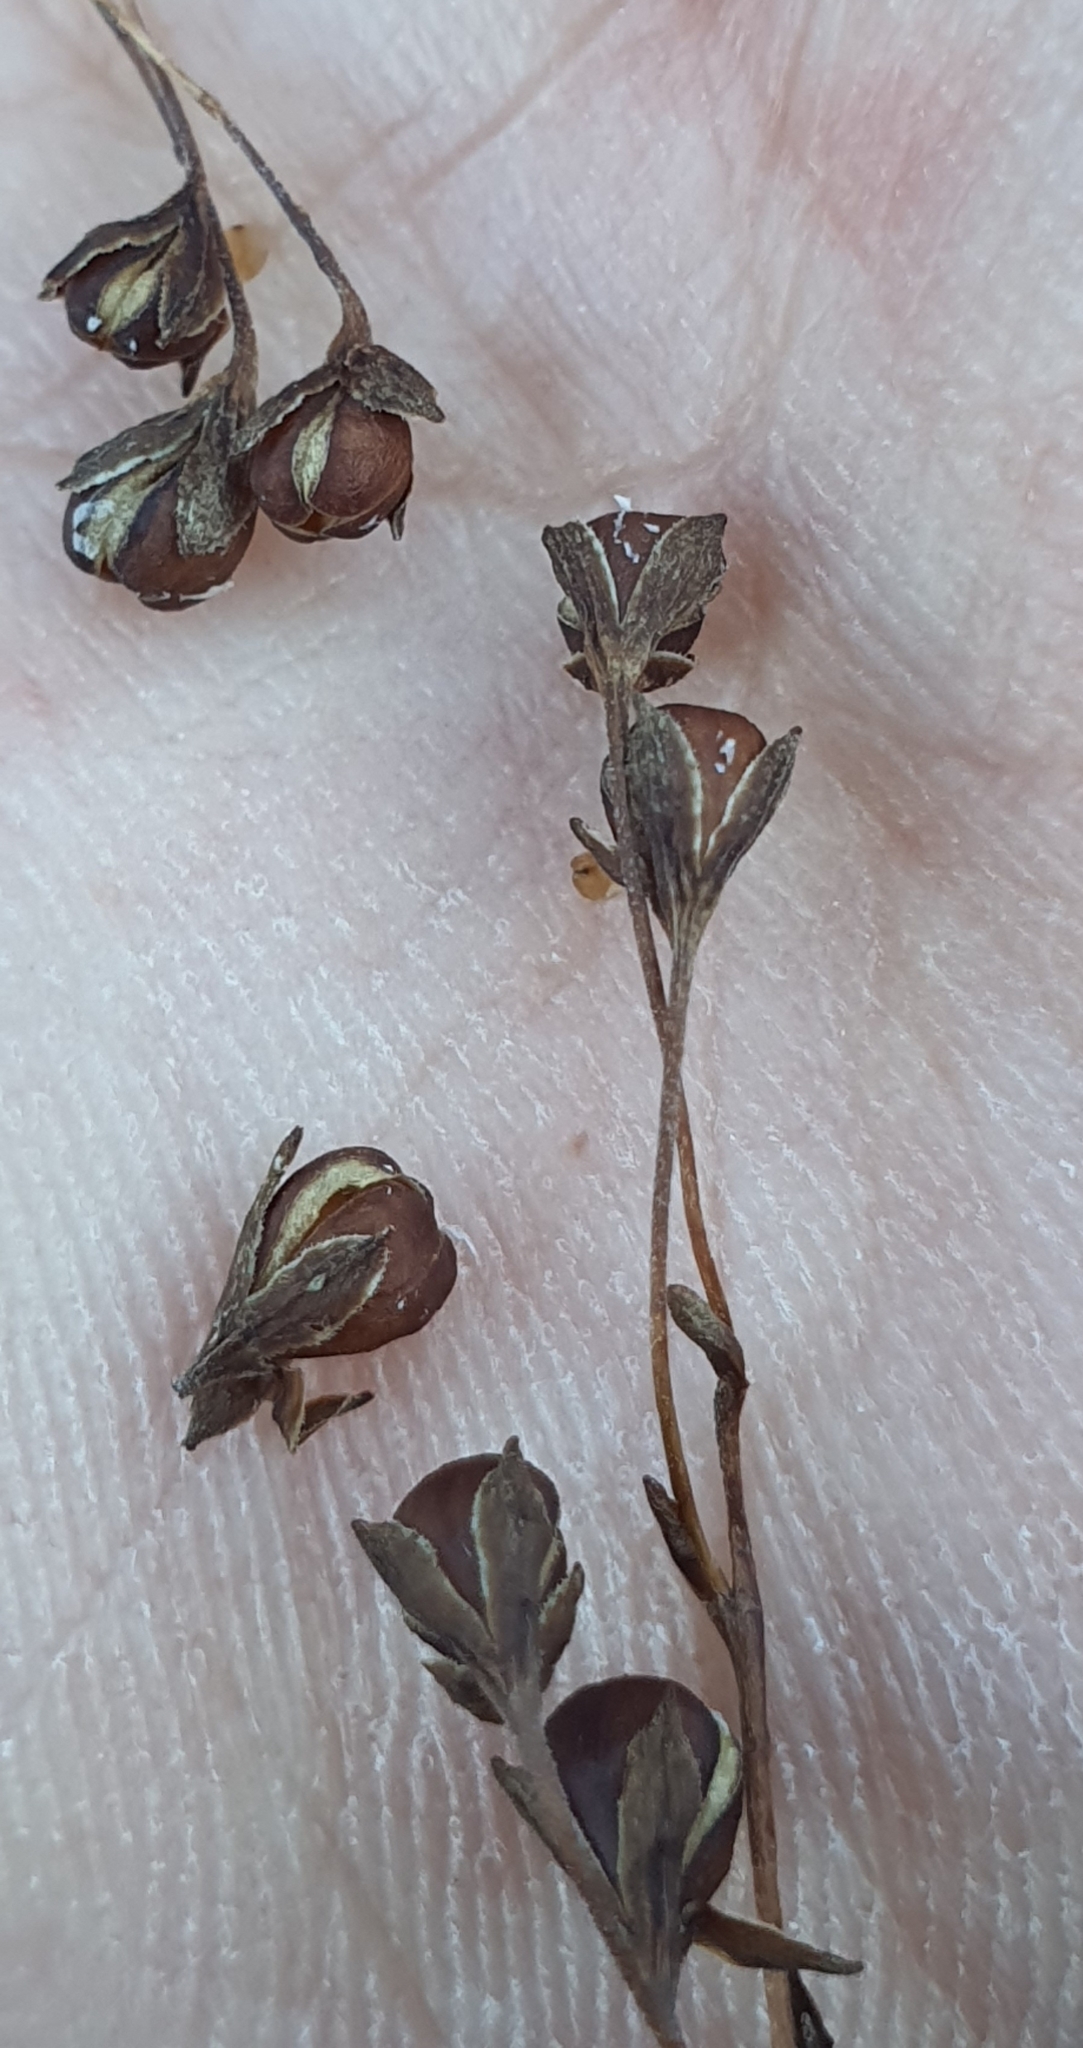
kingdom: Plantae
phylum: Tracheophyta
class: Magnoliopsida
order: Lamiales
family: Plantaginaceae
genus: Veronica
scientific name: Veronica lyallii
